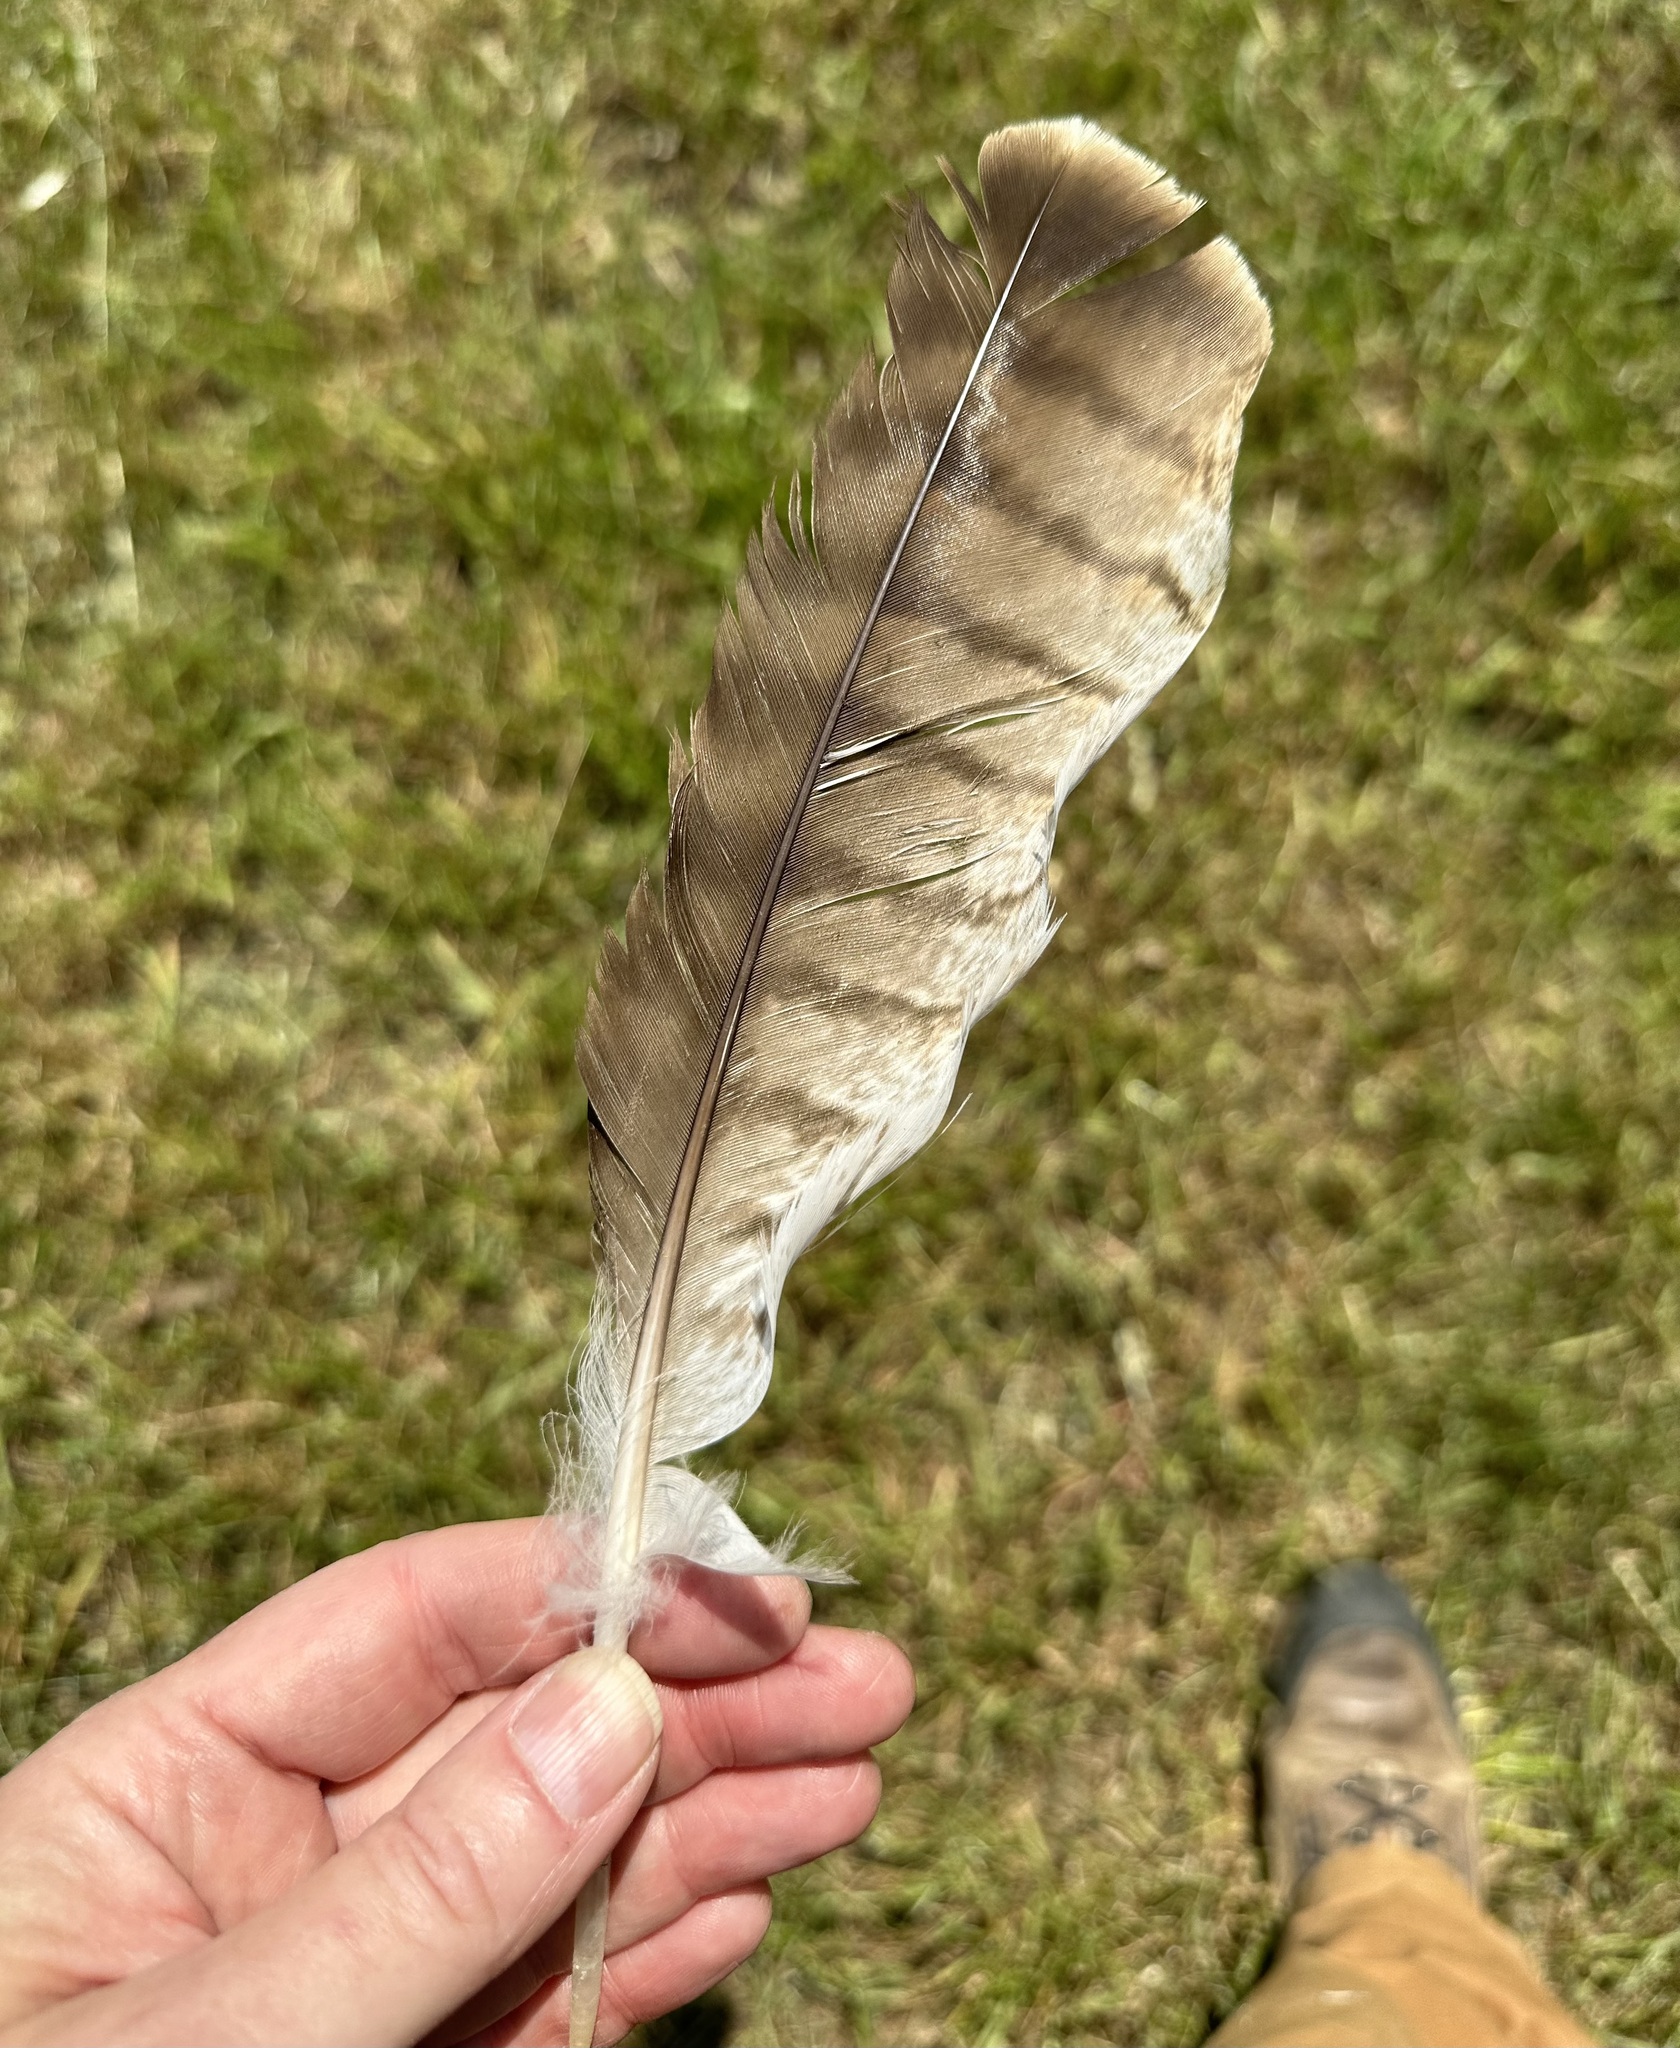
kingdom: Animalia
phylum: Chordata
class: Aves
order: Accipitriformes
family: Accipitridae
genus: Buteo
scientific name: Buteo jamaicensis
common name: Red-tailed hawk
